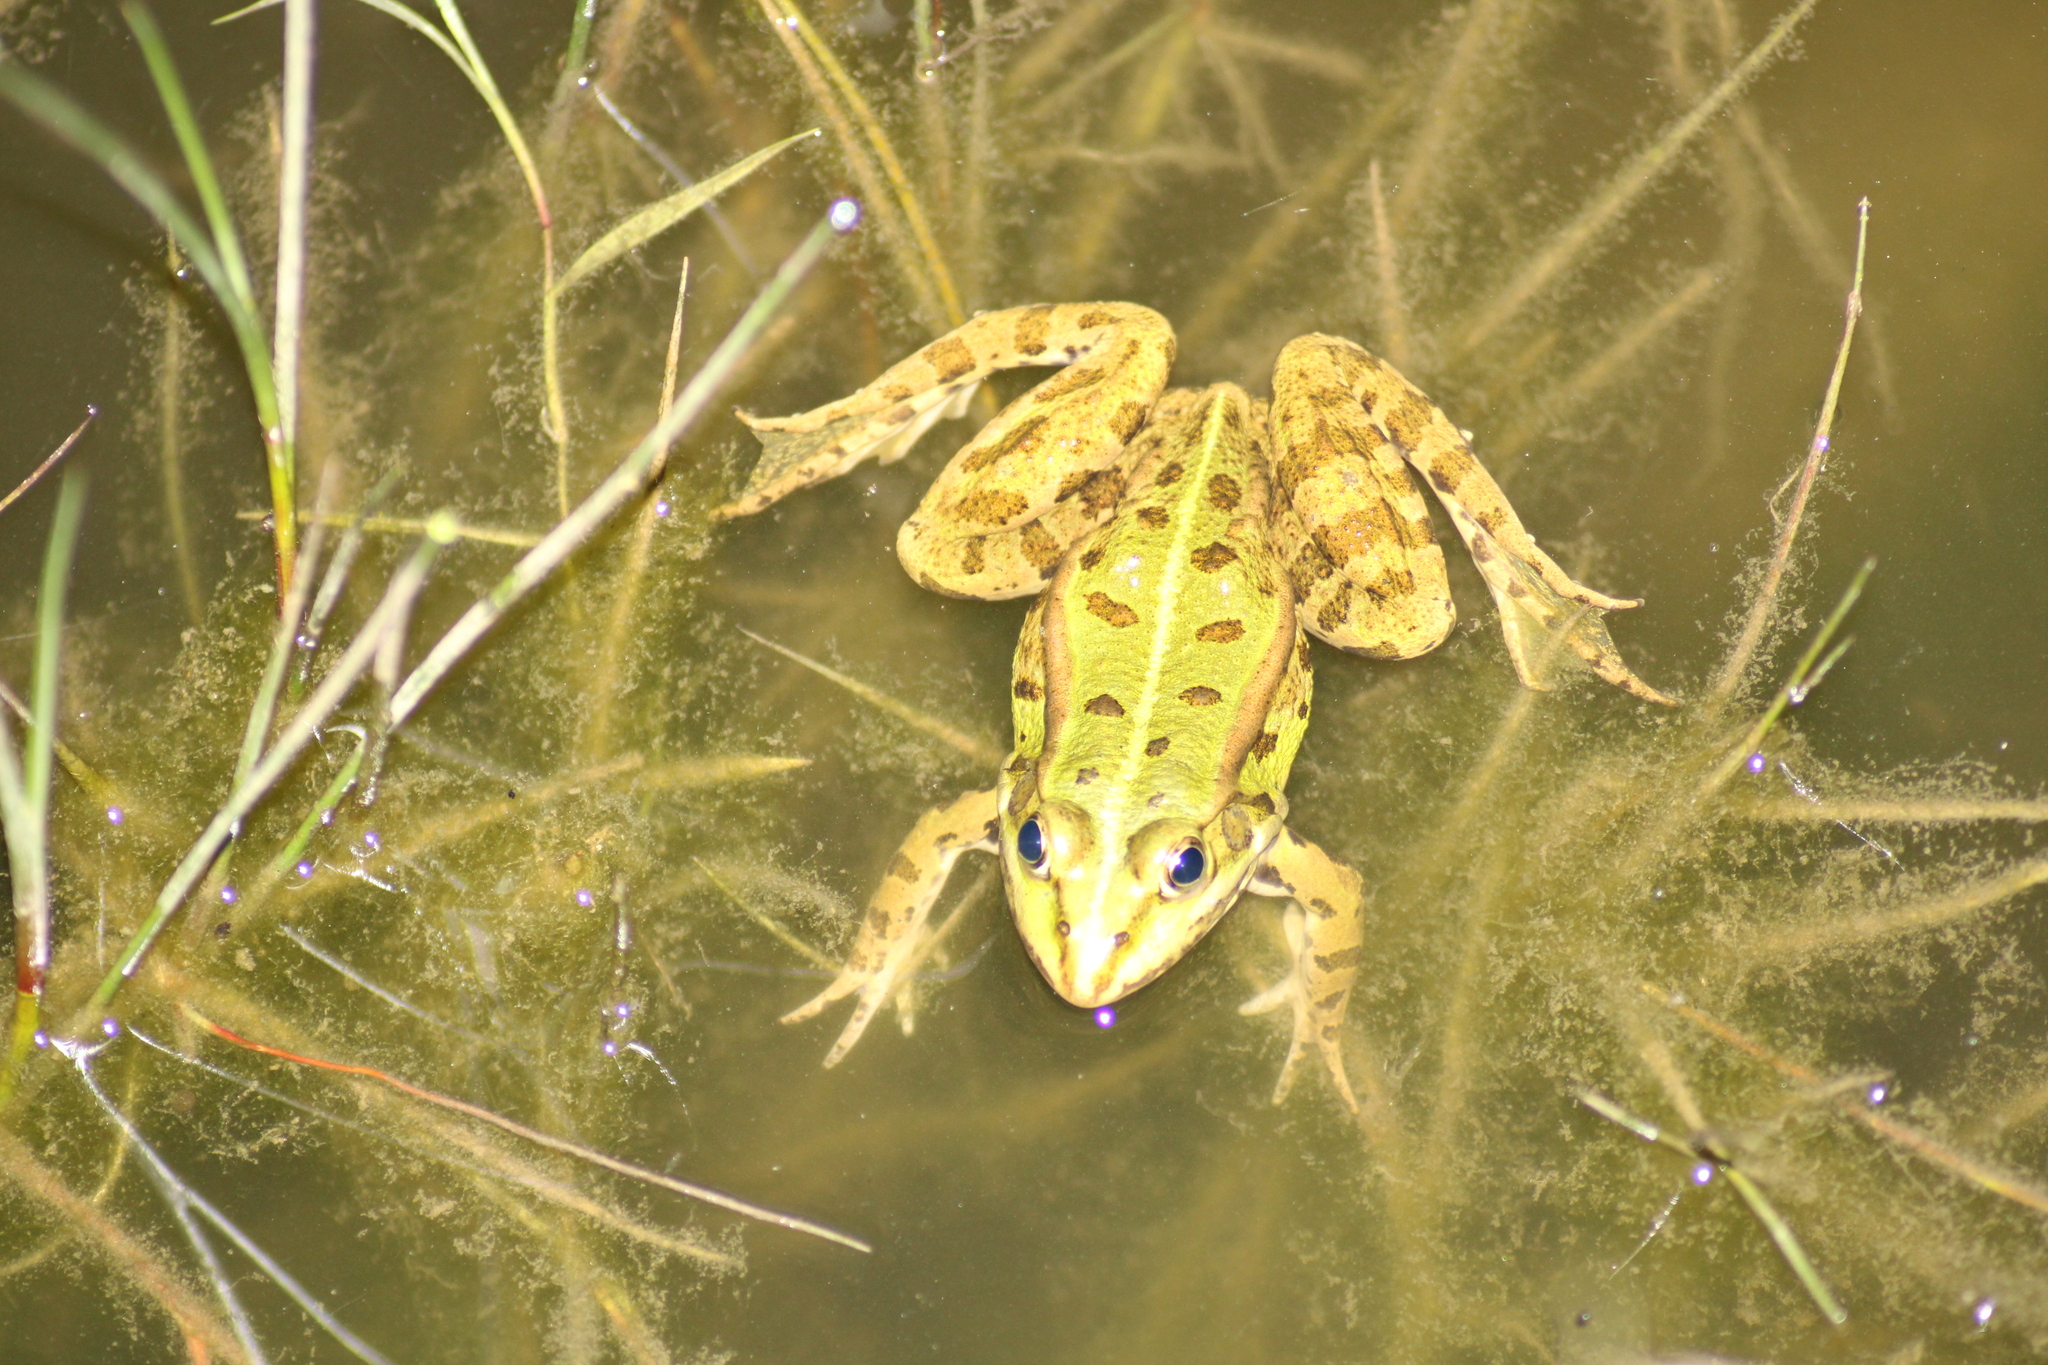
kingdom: Animalia
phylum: Chordata
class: Amphibia
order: Anura
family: Ranidae
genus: Pelophylax
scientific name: Pelophylax
